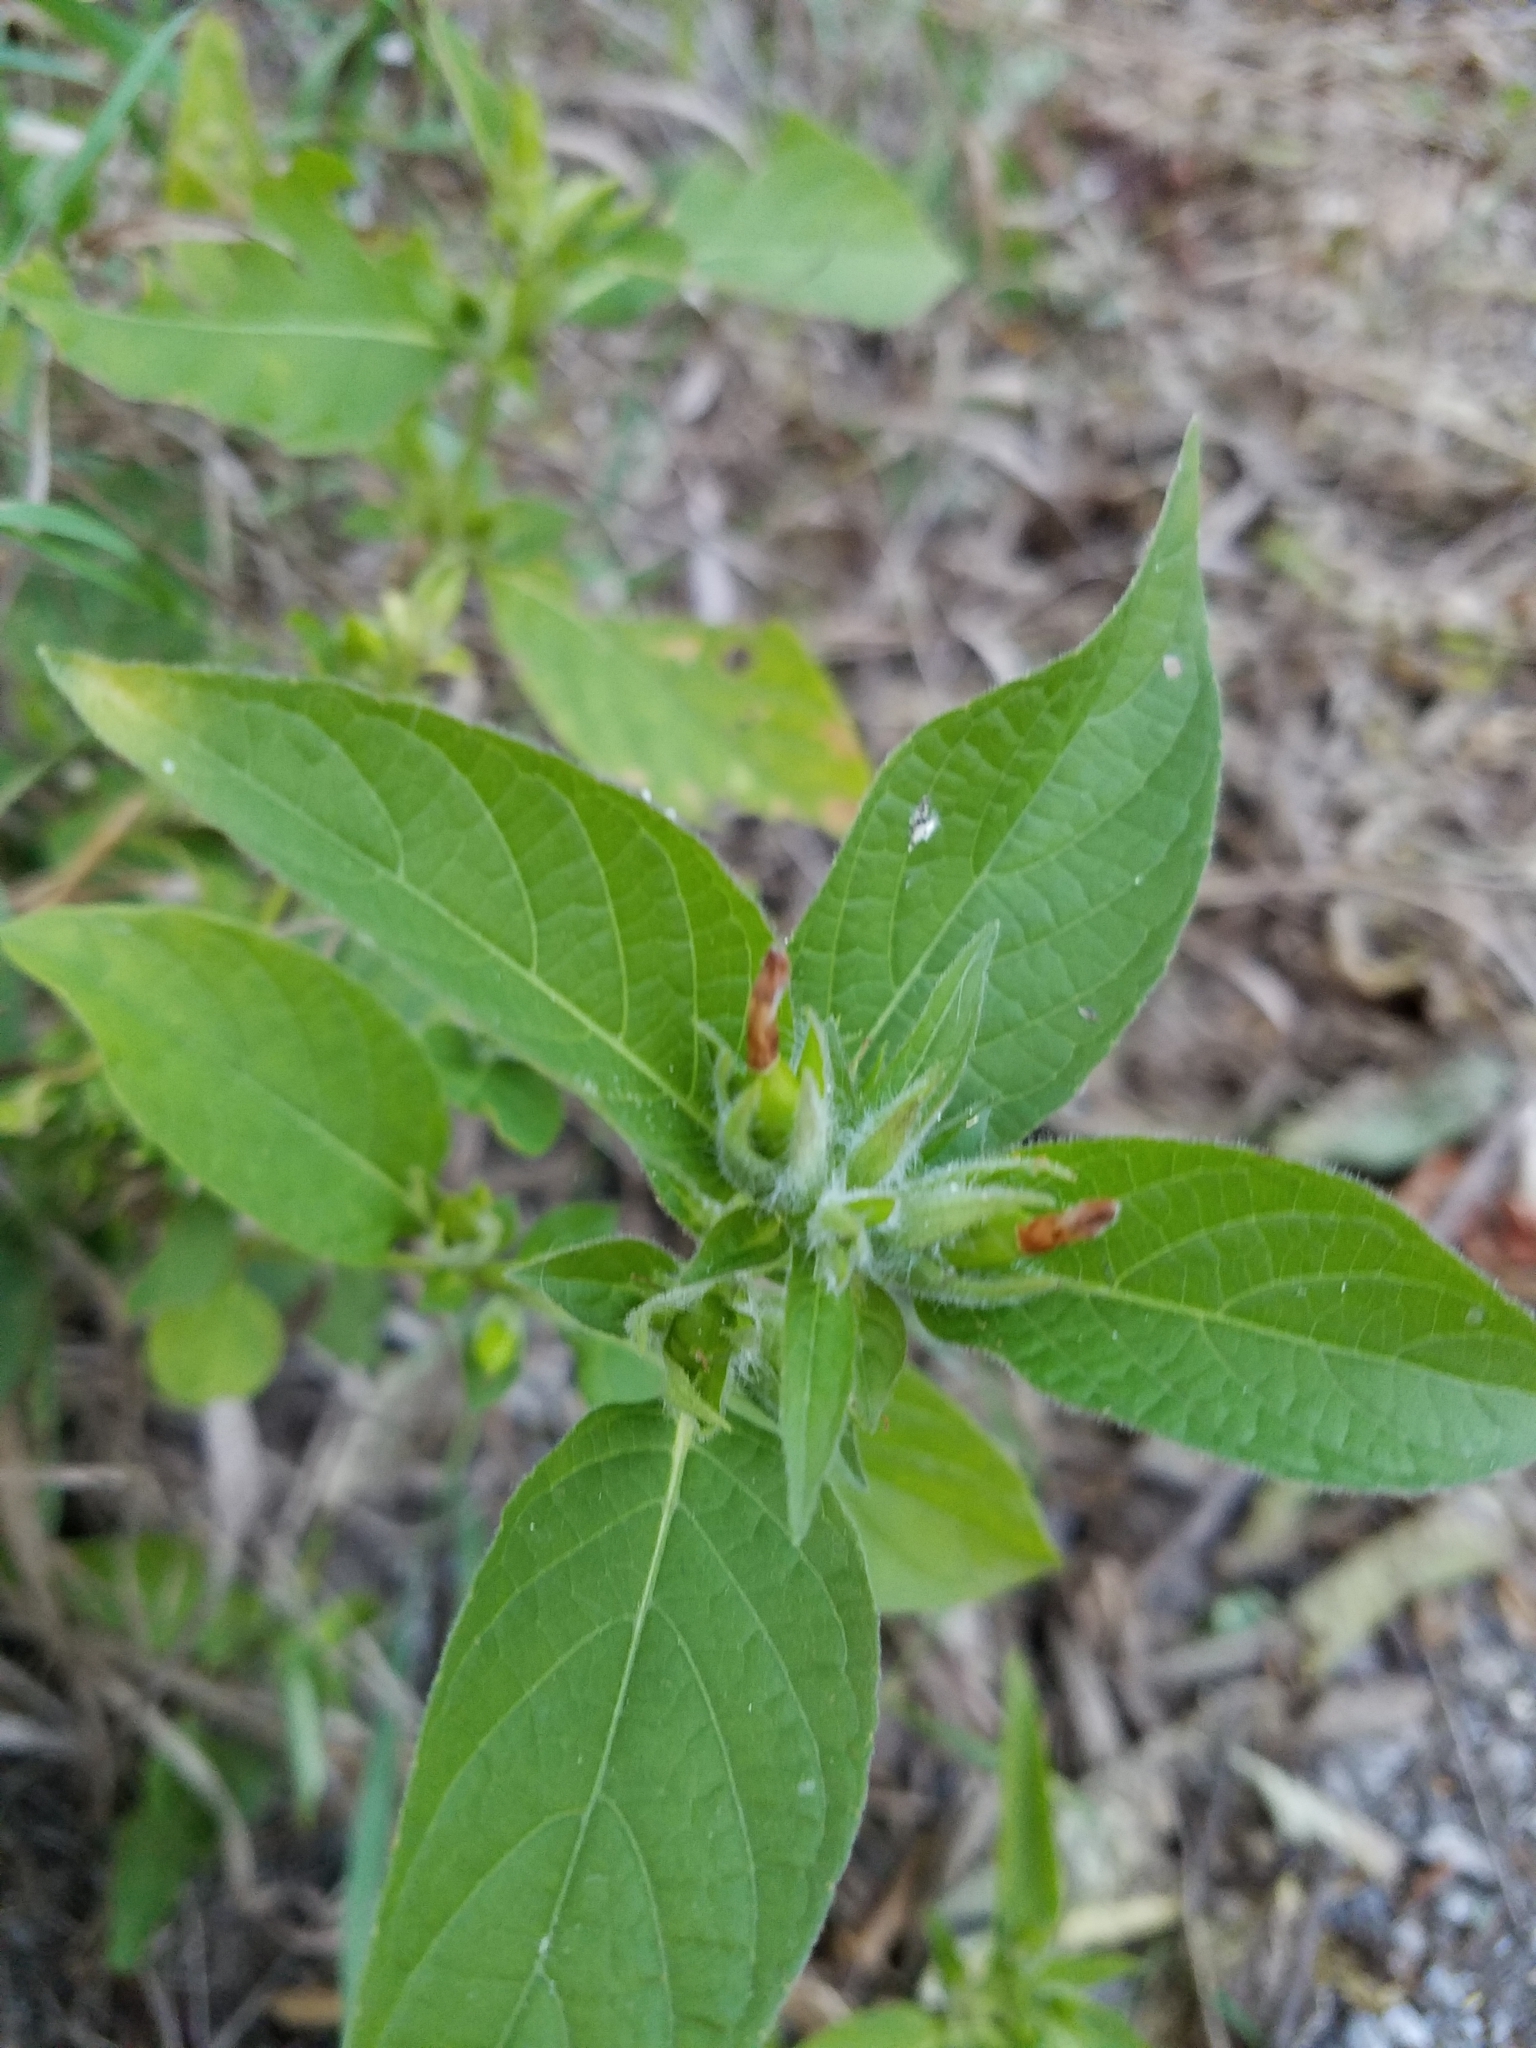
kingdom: Plantae
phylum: Tracheophyta
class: Magnoliopsida
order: Lamiales
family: Acanthaceae
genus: Ruellia
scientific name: Ruellia strepens
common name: Limestone wild petunia
